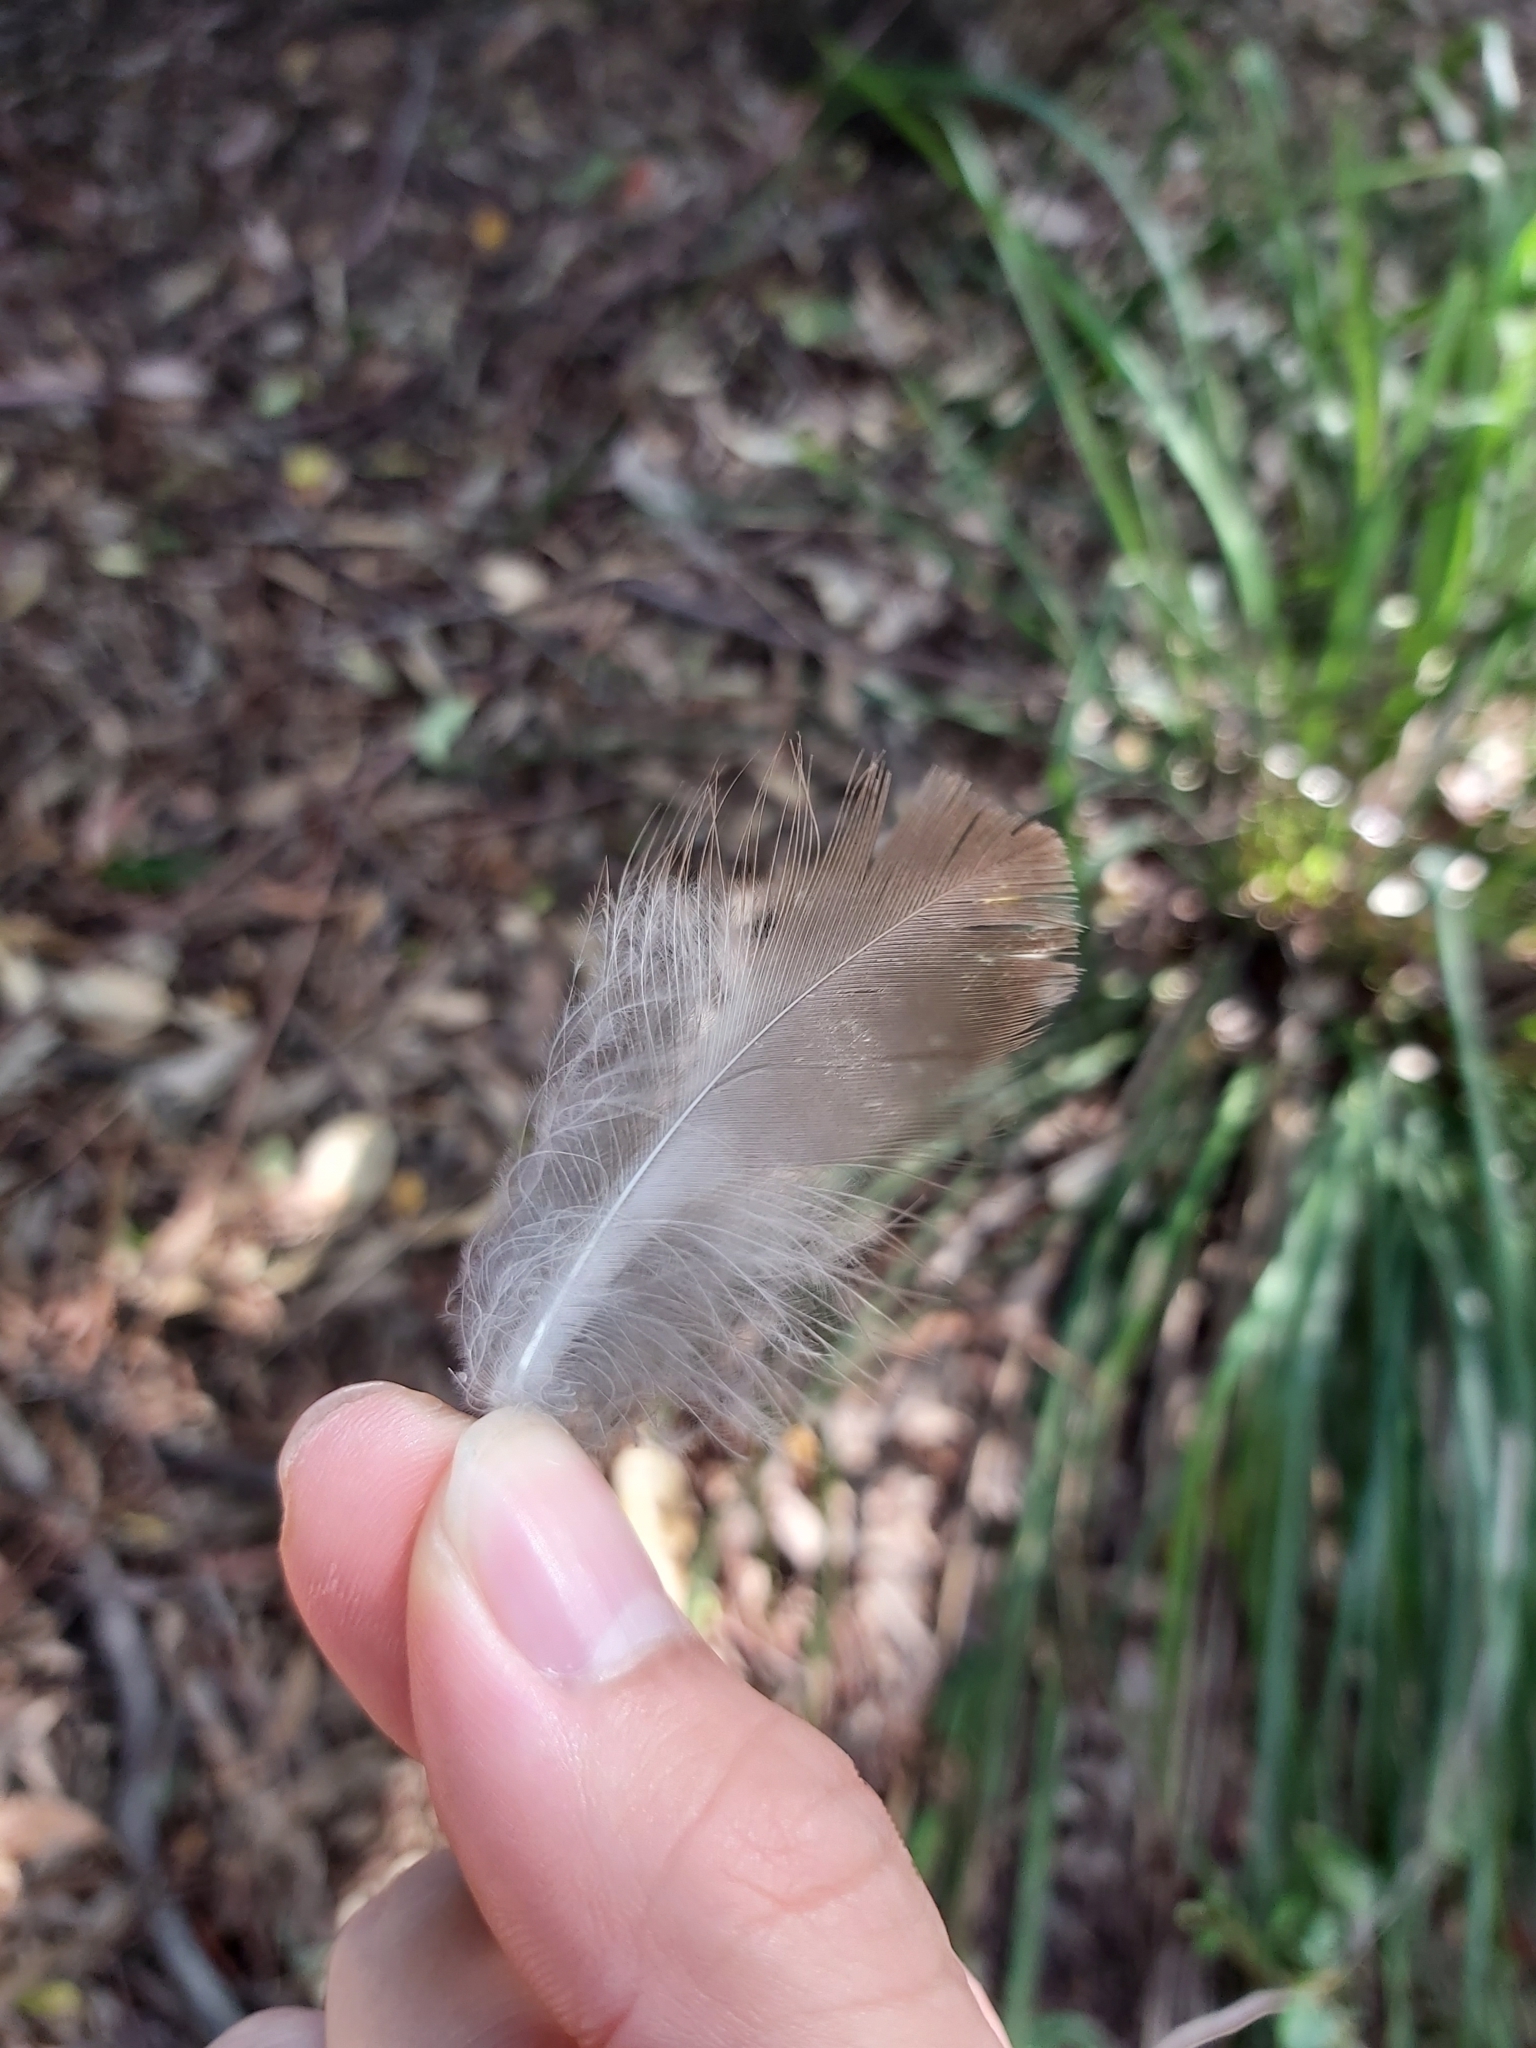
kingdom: Animalia
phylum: Chordata
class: Aves
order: Coraciiformes
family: Alcedinidae
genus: Dacelo
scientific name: Dacelo novaeguineae
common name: Laughing kookaburra
